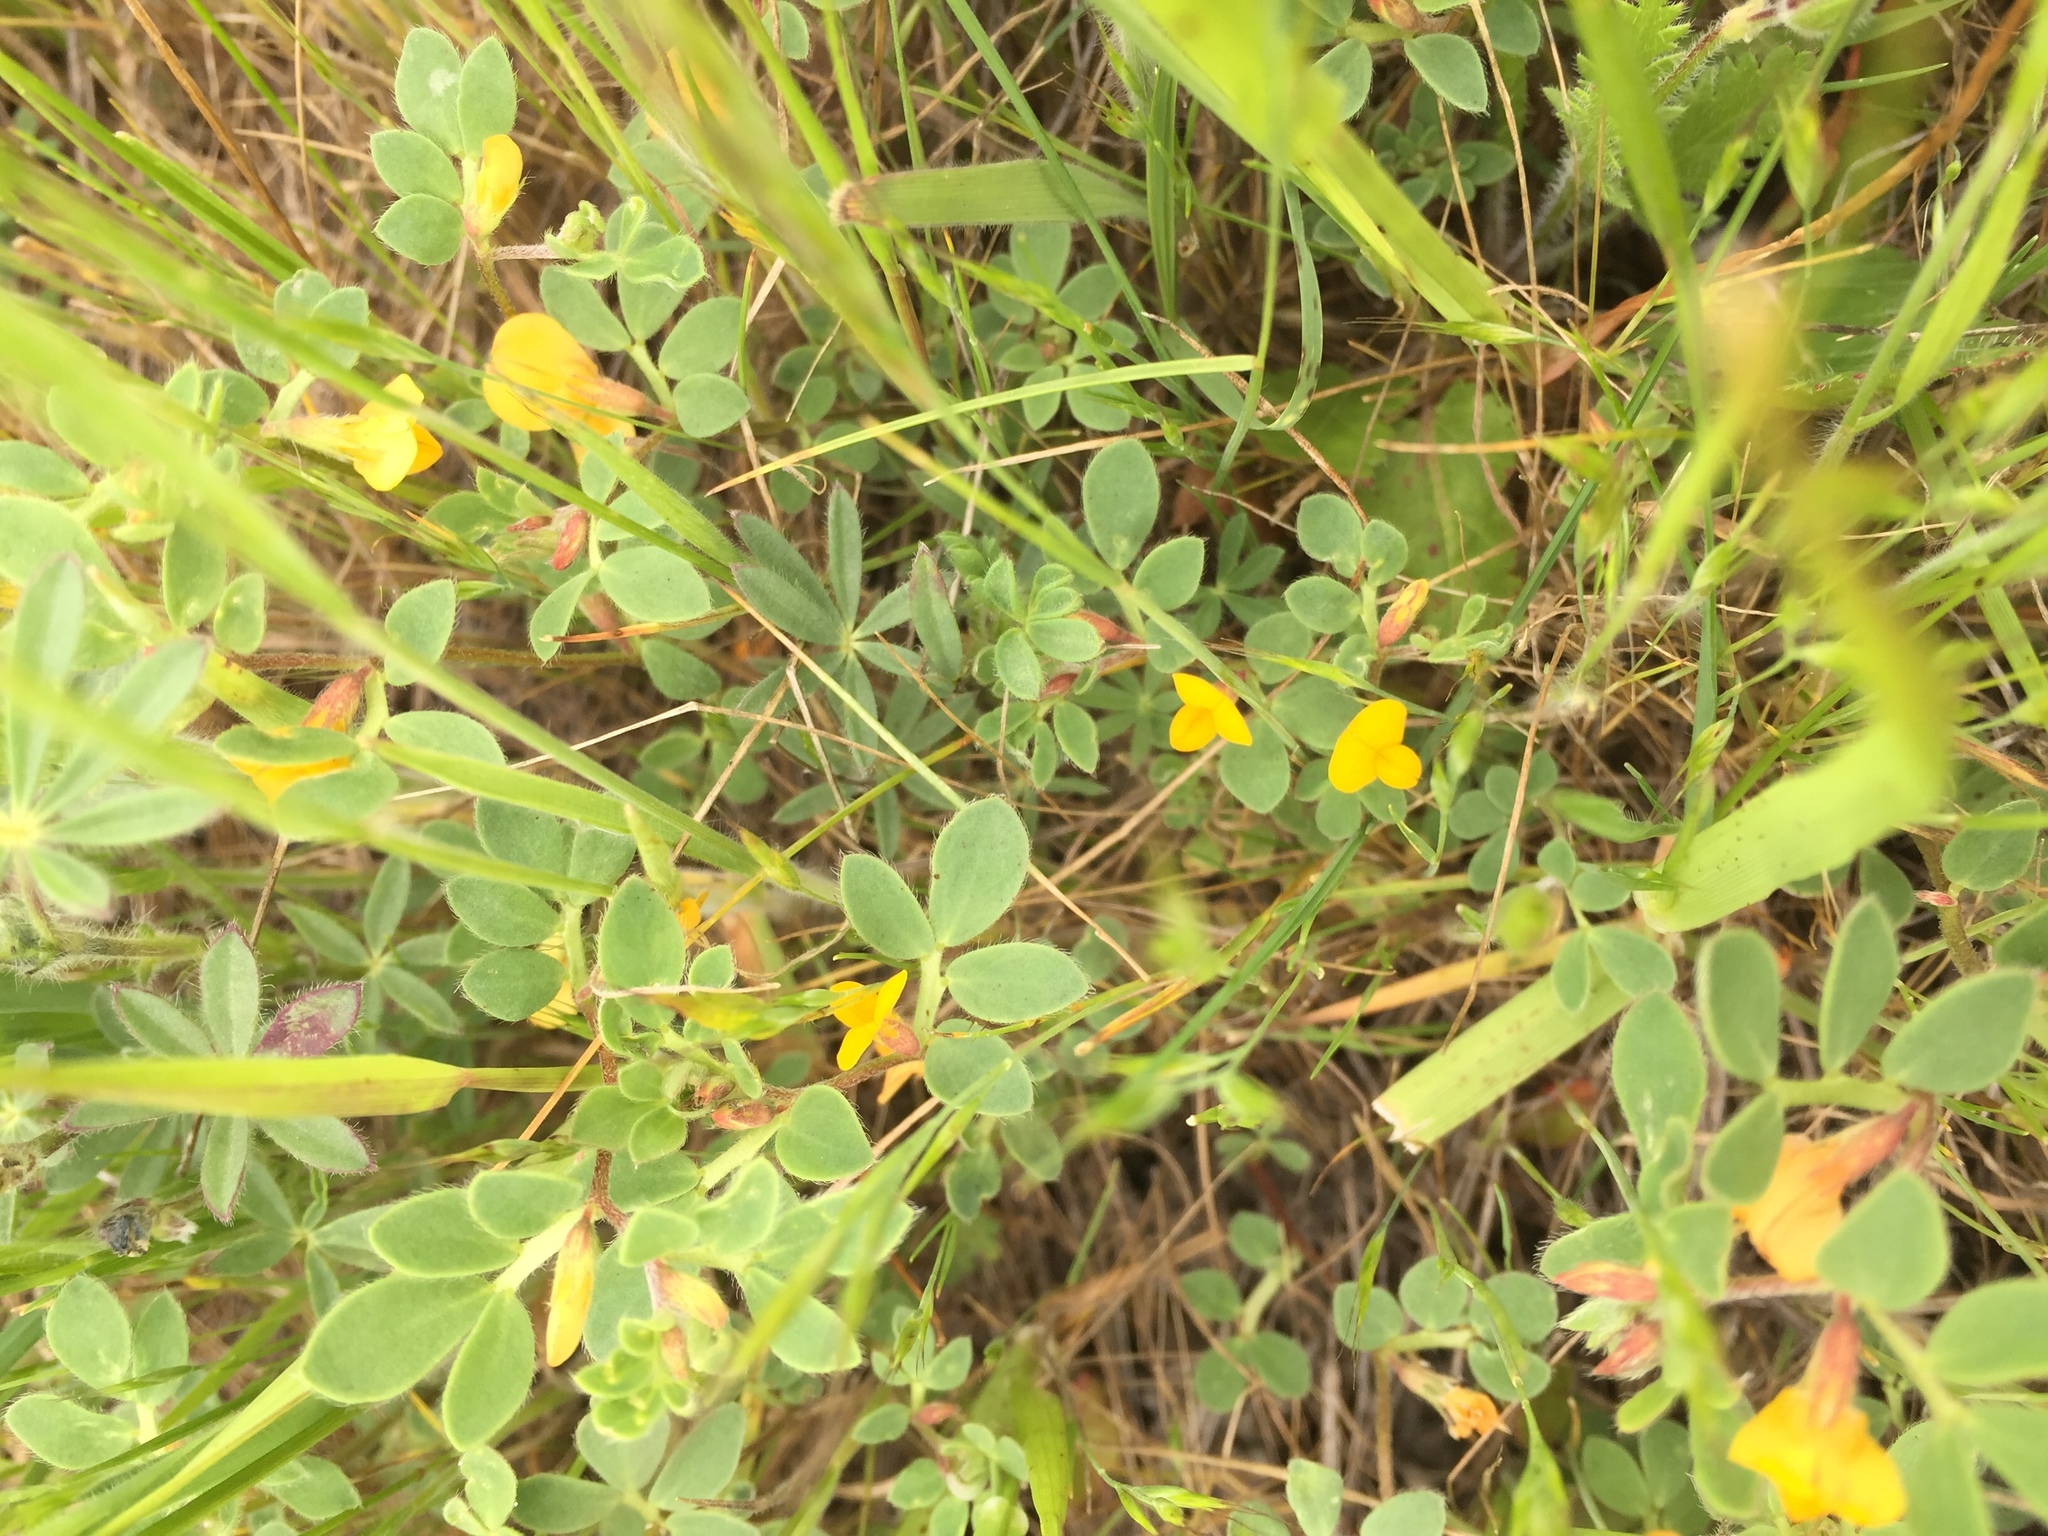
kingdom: Plantae
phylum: Tracheophyta
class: Magnoliopsida
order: Fabales
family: Fabaceae
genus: Acmispon
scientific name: Acmispon wrangelianus
